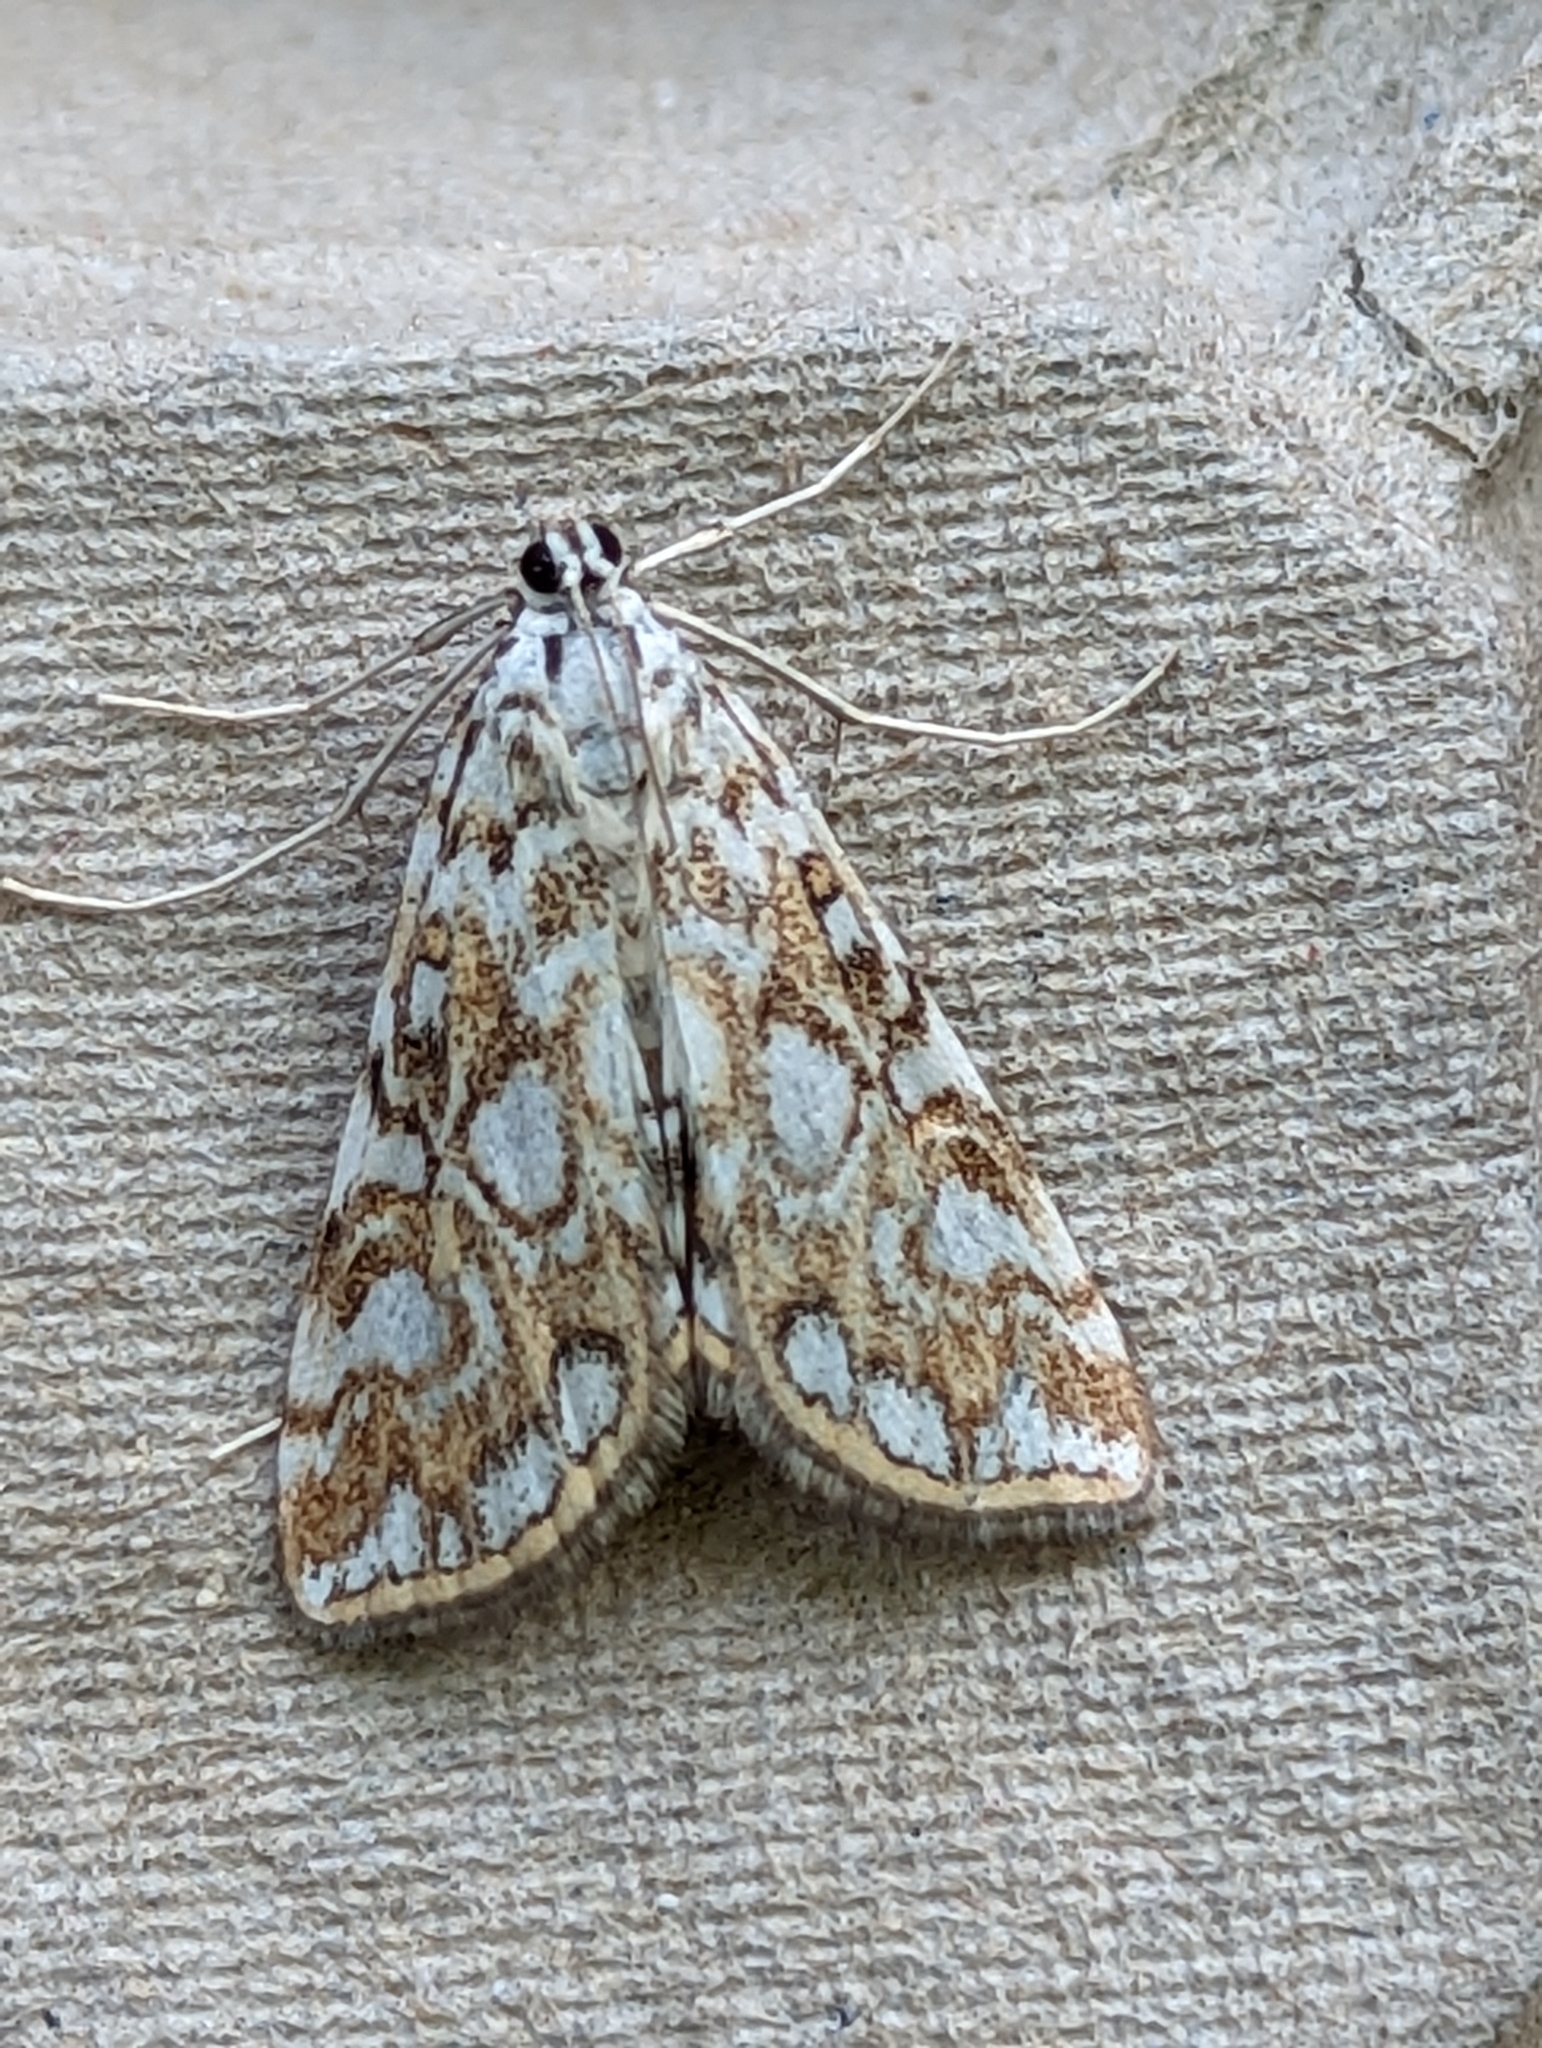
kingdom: Animalia
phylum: Arthropoda
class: Insecta
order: Lepidoptera
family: Crambidae
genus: Elophila
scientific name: Elophila nymphaeata
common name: Brown china-mark
